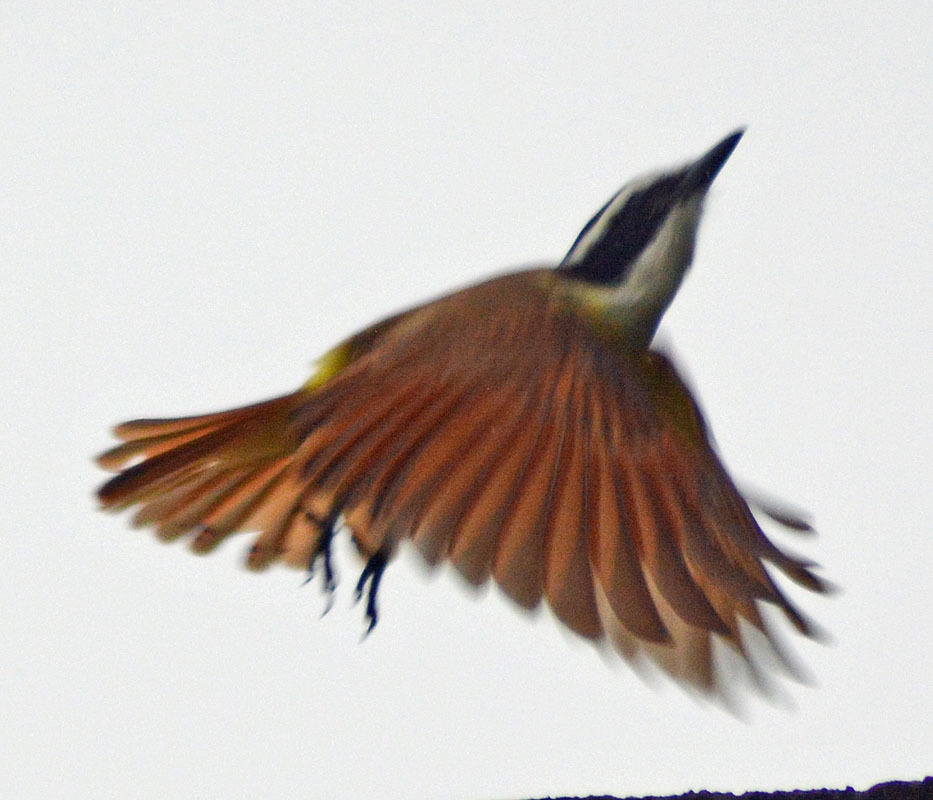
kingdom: Animalia
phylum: Chordata
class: Aves
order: Passeriformes
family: Tyrannidae
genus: Pitangus
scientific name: Pitangus sulphuratus
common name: Great kiskadee
